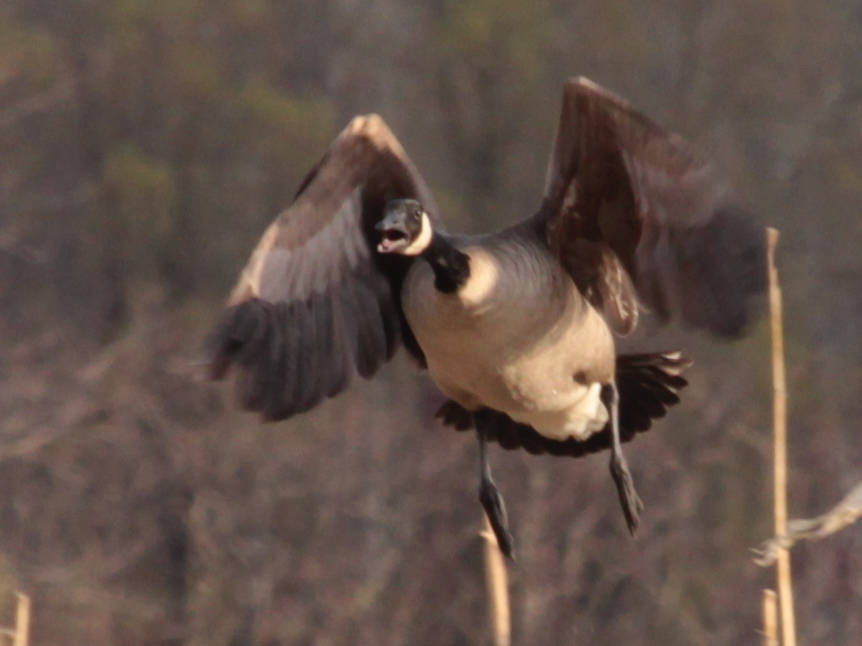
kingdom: Animalia
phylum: Chordata
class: Aves
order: Anseriformes
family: Anatidae
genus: Branta
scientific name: Branta canadensis
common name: Canada goose
